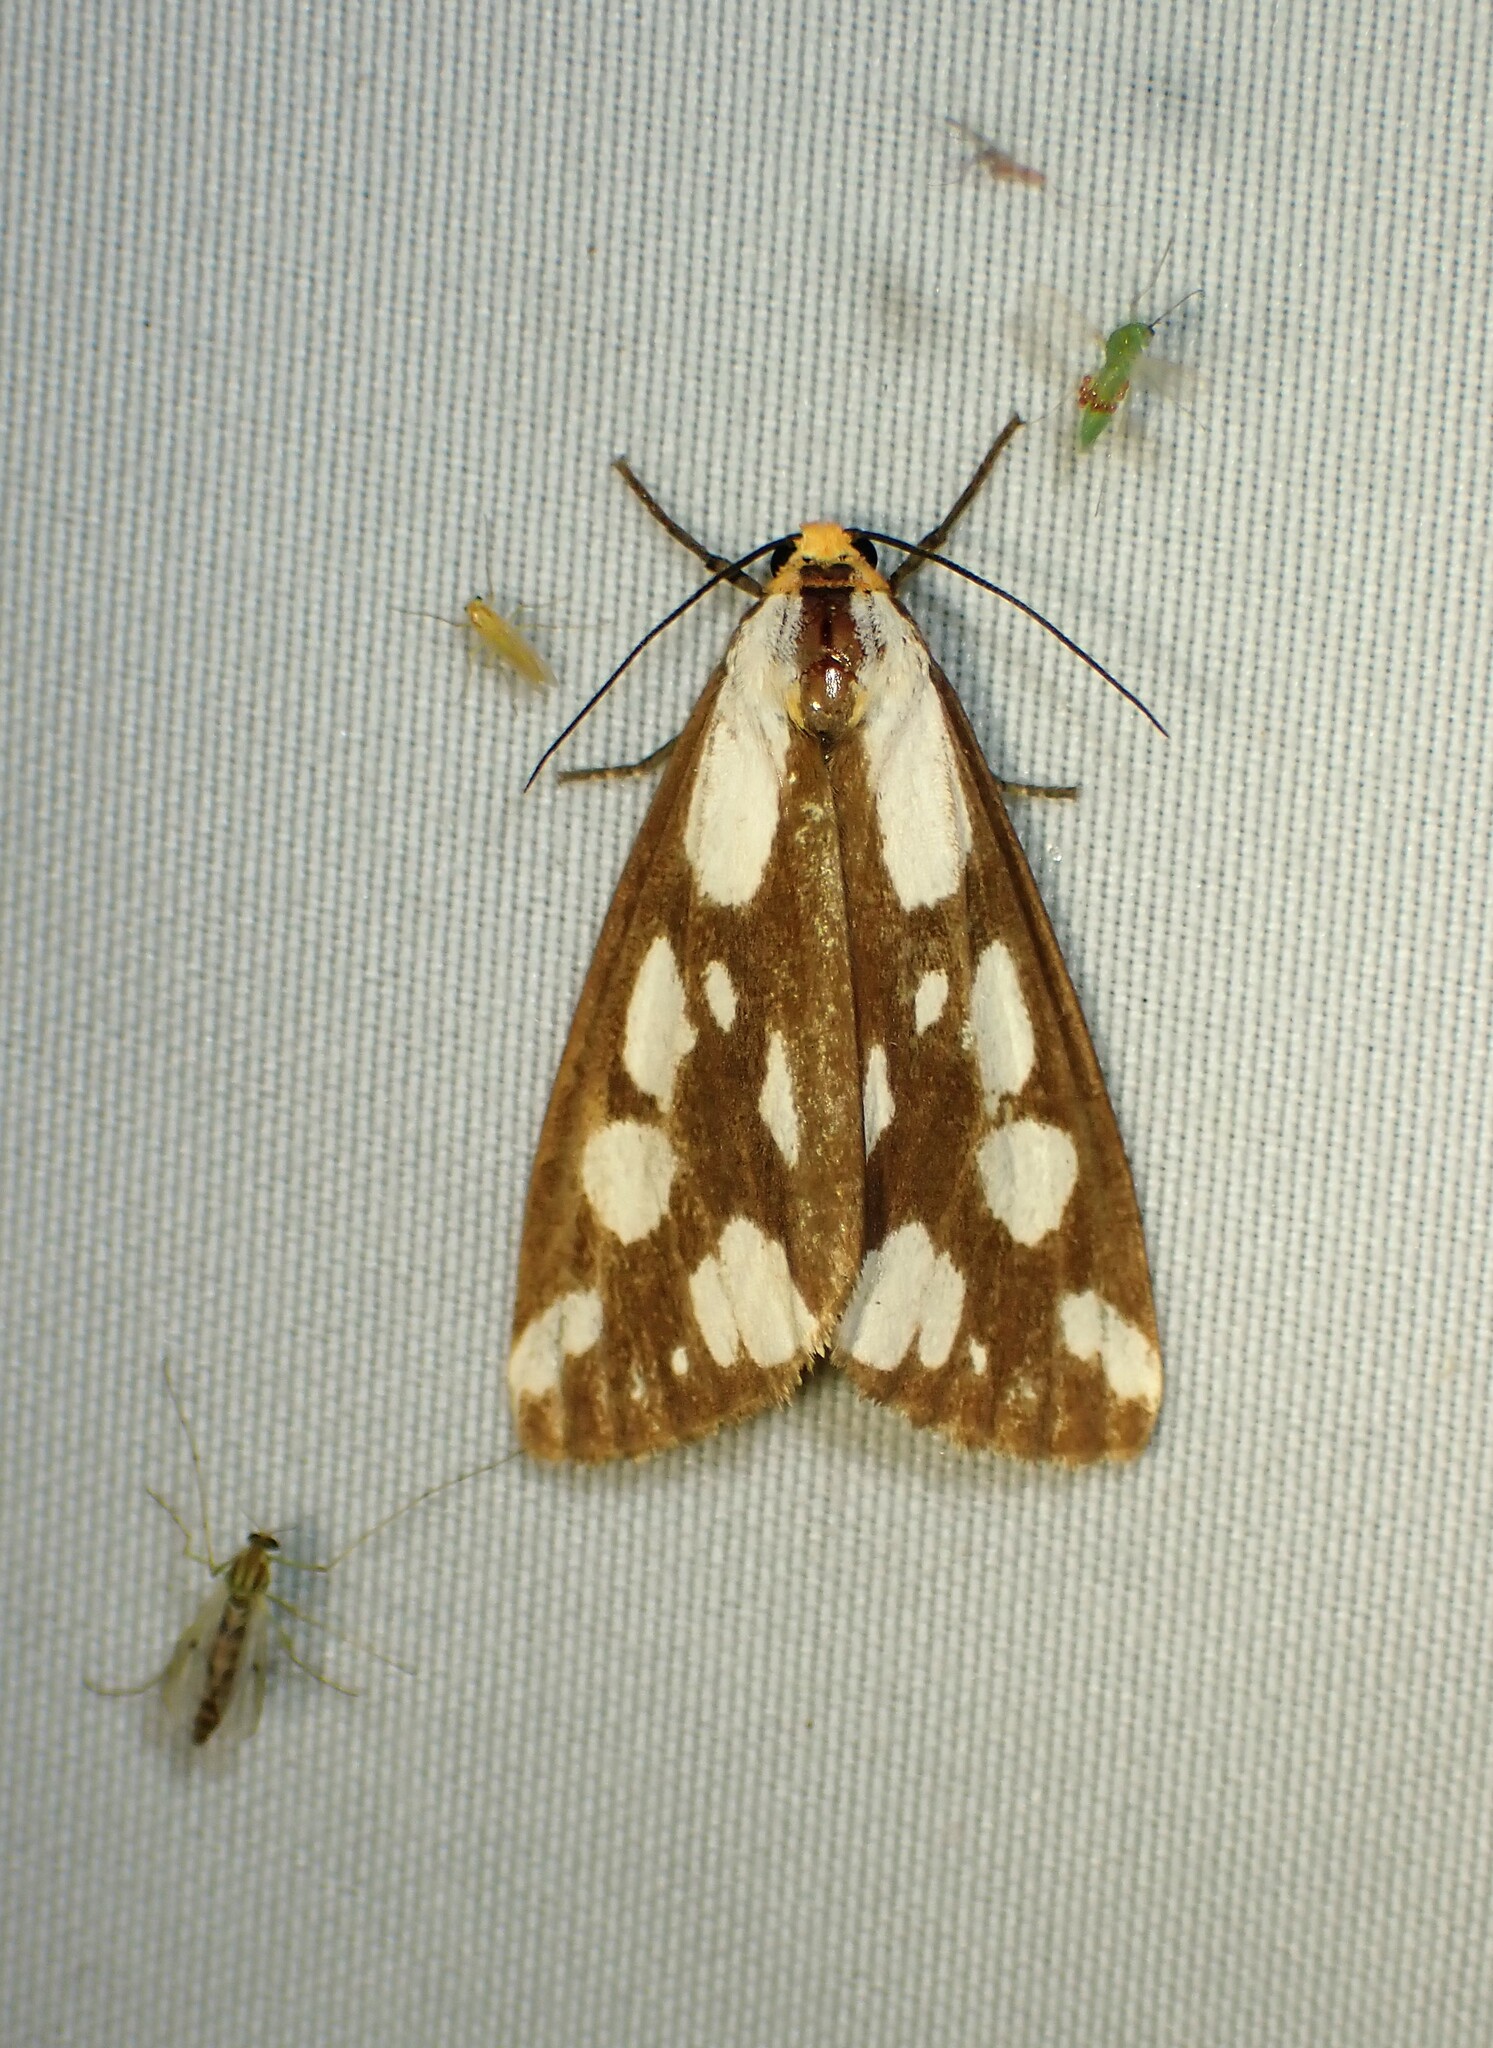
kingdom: Animalia
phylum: Arthropoda
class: Insecta
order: Lepidoptera
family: Erebidae
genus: Haploa
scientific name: Haploa confusa
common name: Confused haploa moth
